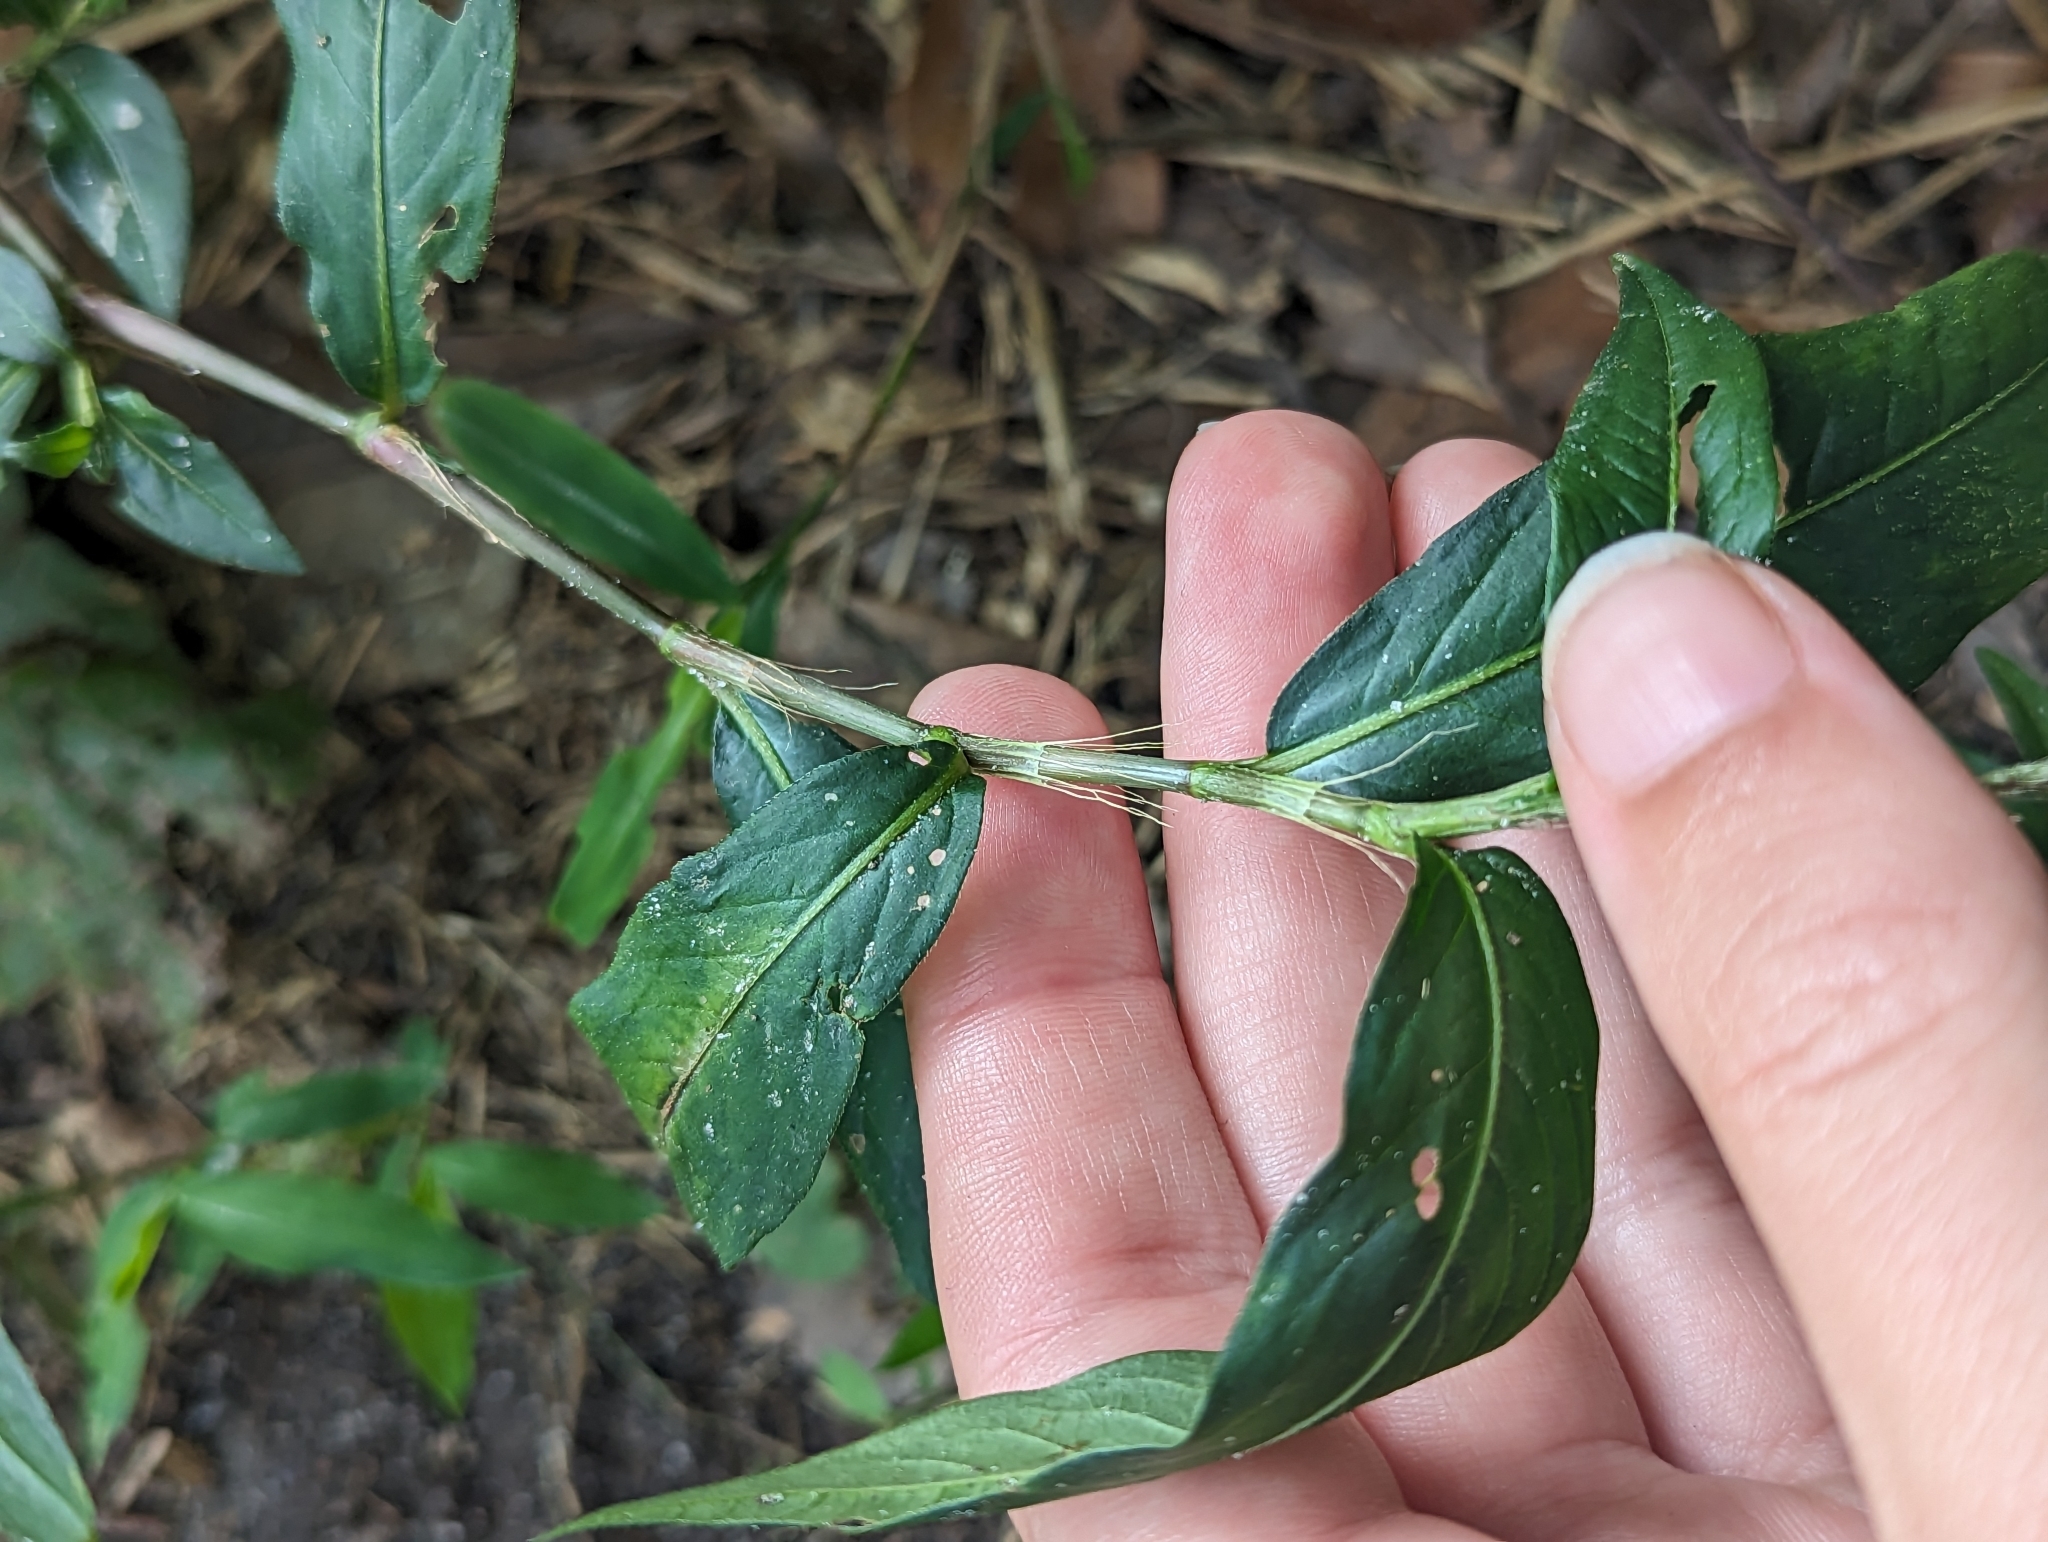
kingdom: Plantae
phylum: Tracheophyta
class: Magnoliopsida
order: Caryophyllales
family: Polygonaceae
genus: Persicaria
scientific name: Persicaria longiseta
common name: Bristly lady's-thumb
